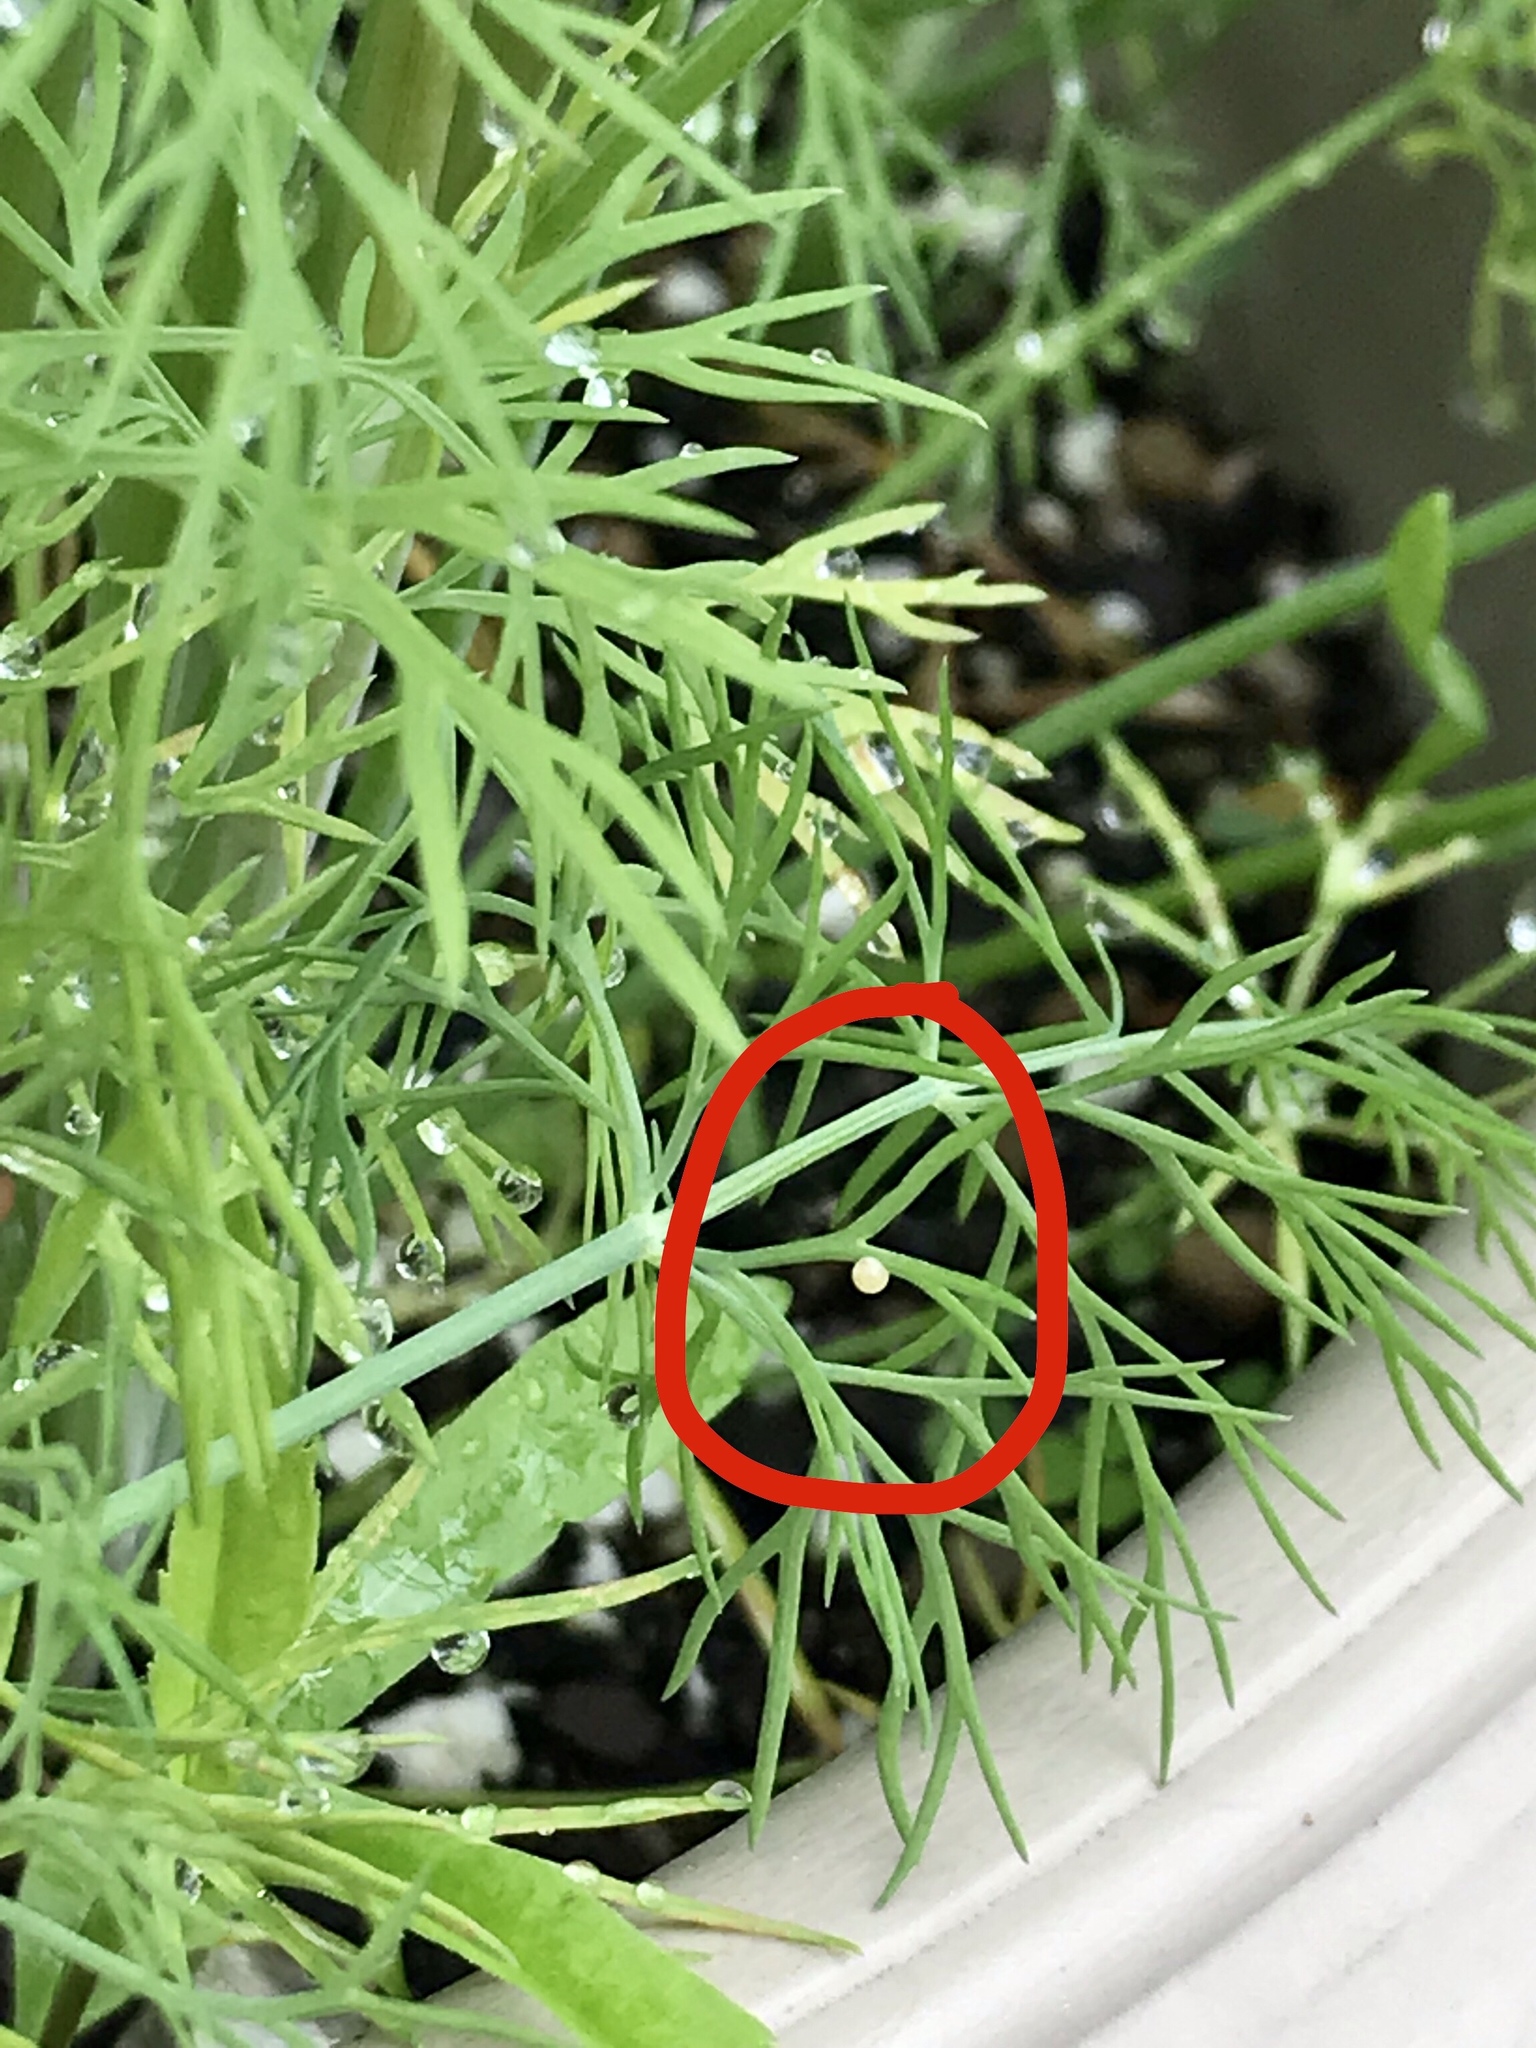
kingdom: Animalia
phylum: Arthropoda
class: Insecta
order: Lepidoptera
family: Papilionidae
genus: Papilio
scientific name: Papilio polyxenes
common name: Black swallowtail
